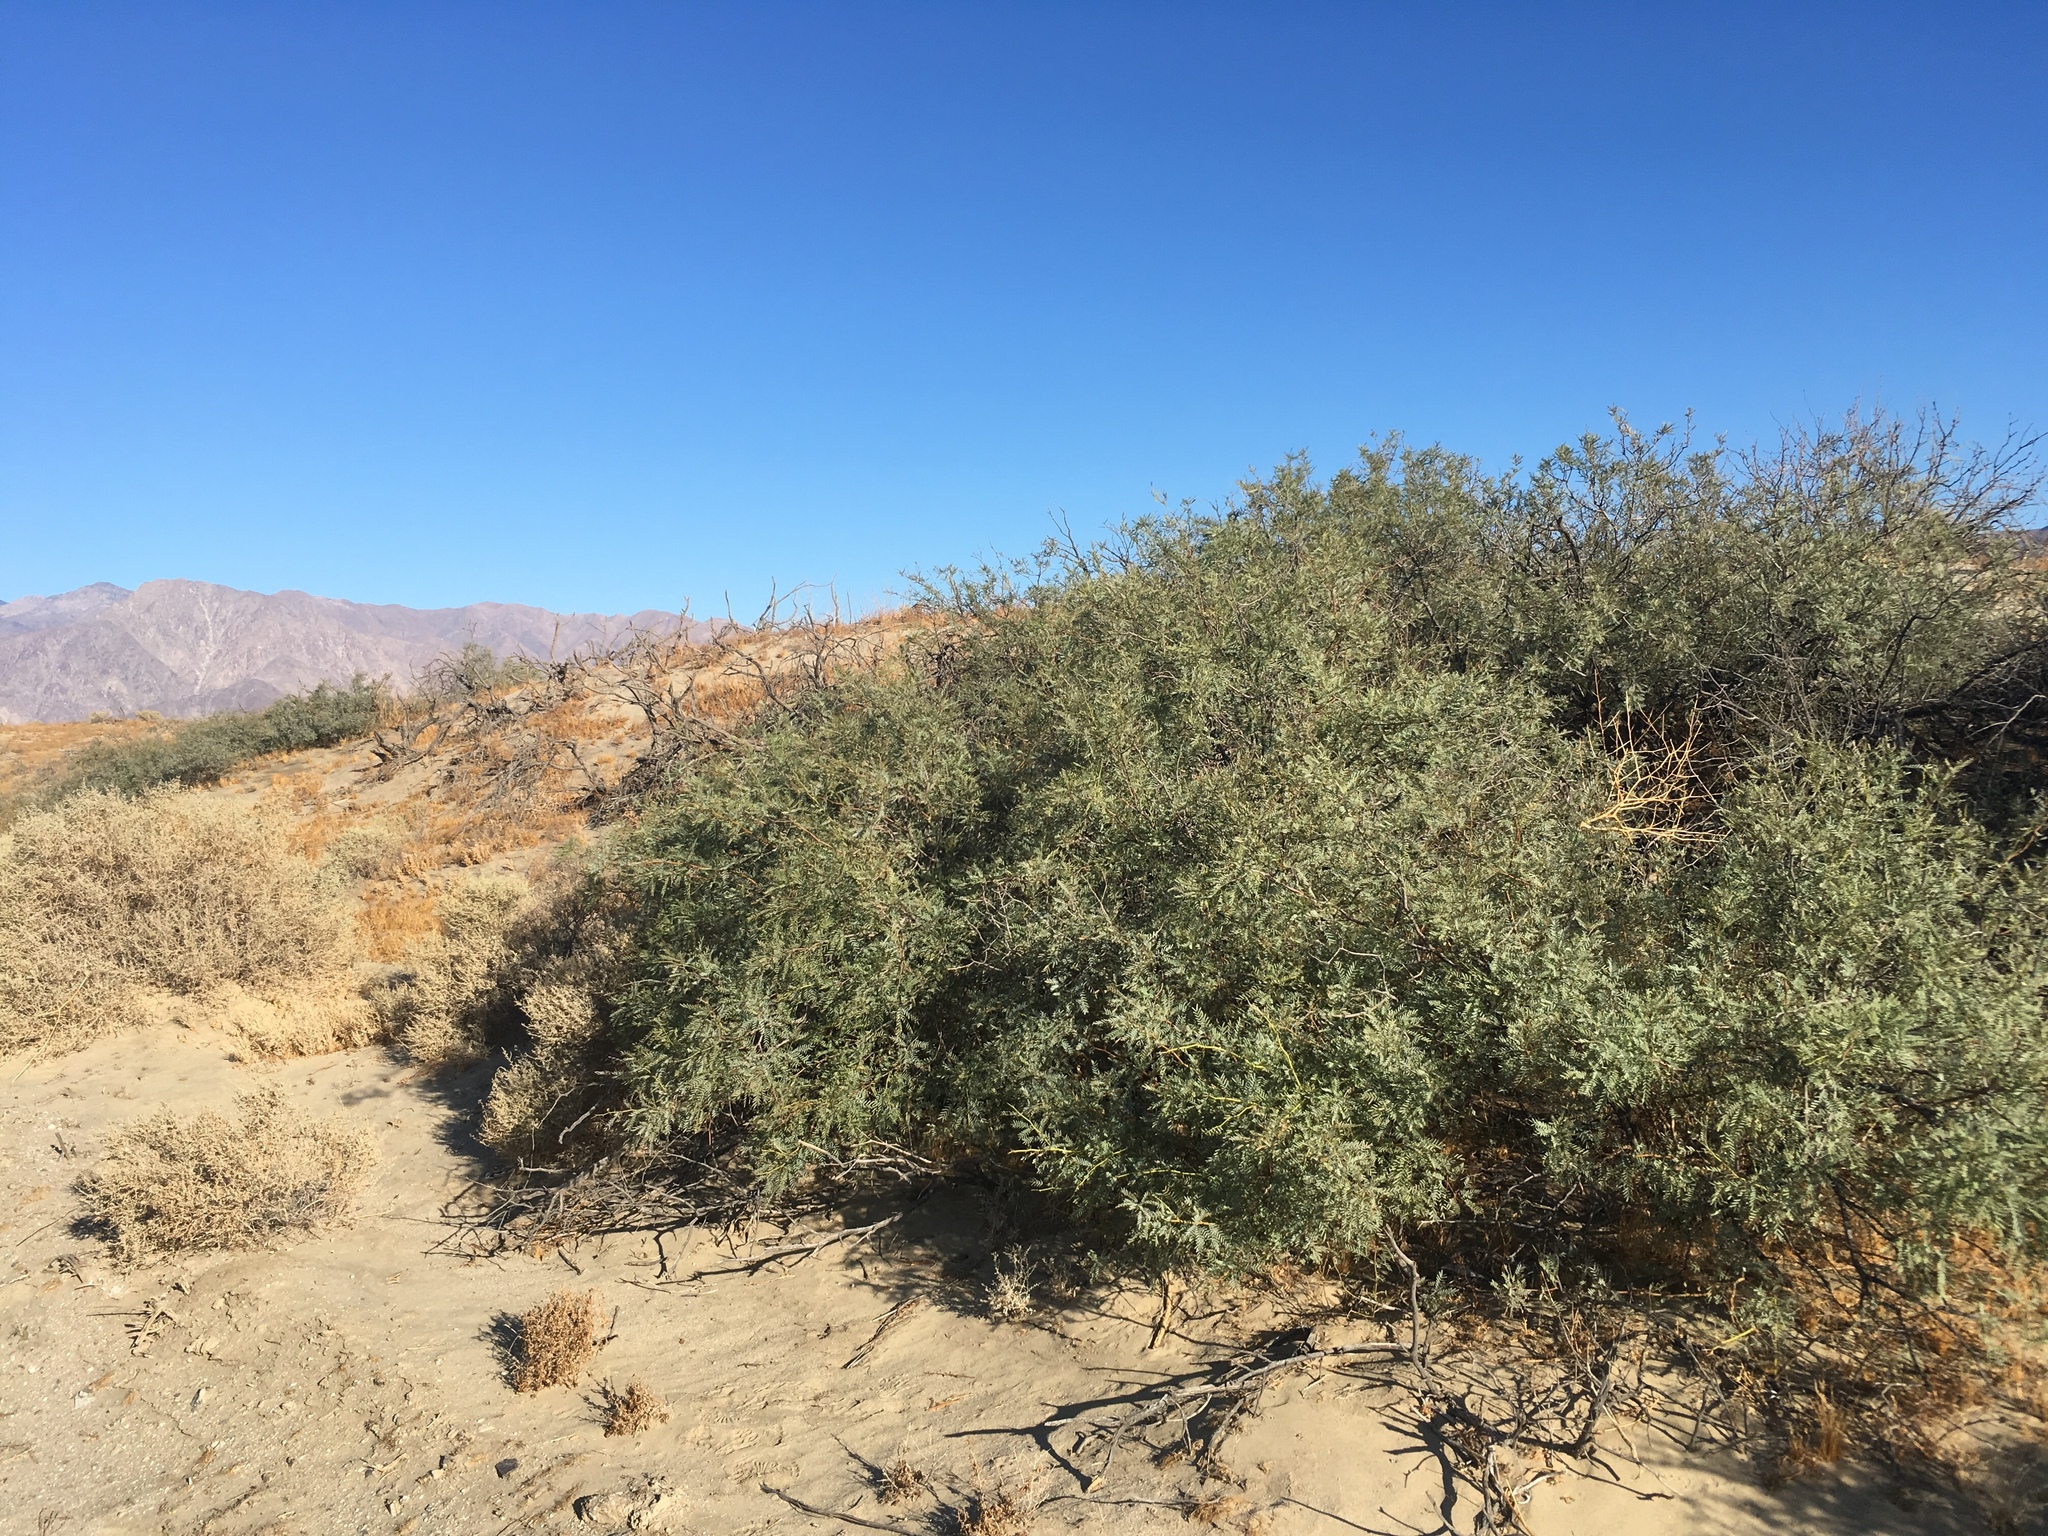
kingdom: Plantae
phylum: Tracheophyta
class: Magnoliopsida
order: Fabales
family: Fabaceae
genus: Prosopis
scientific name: Prosopis pubescens
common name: Screw-bean
